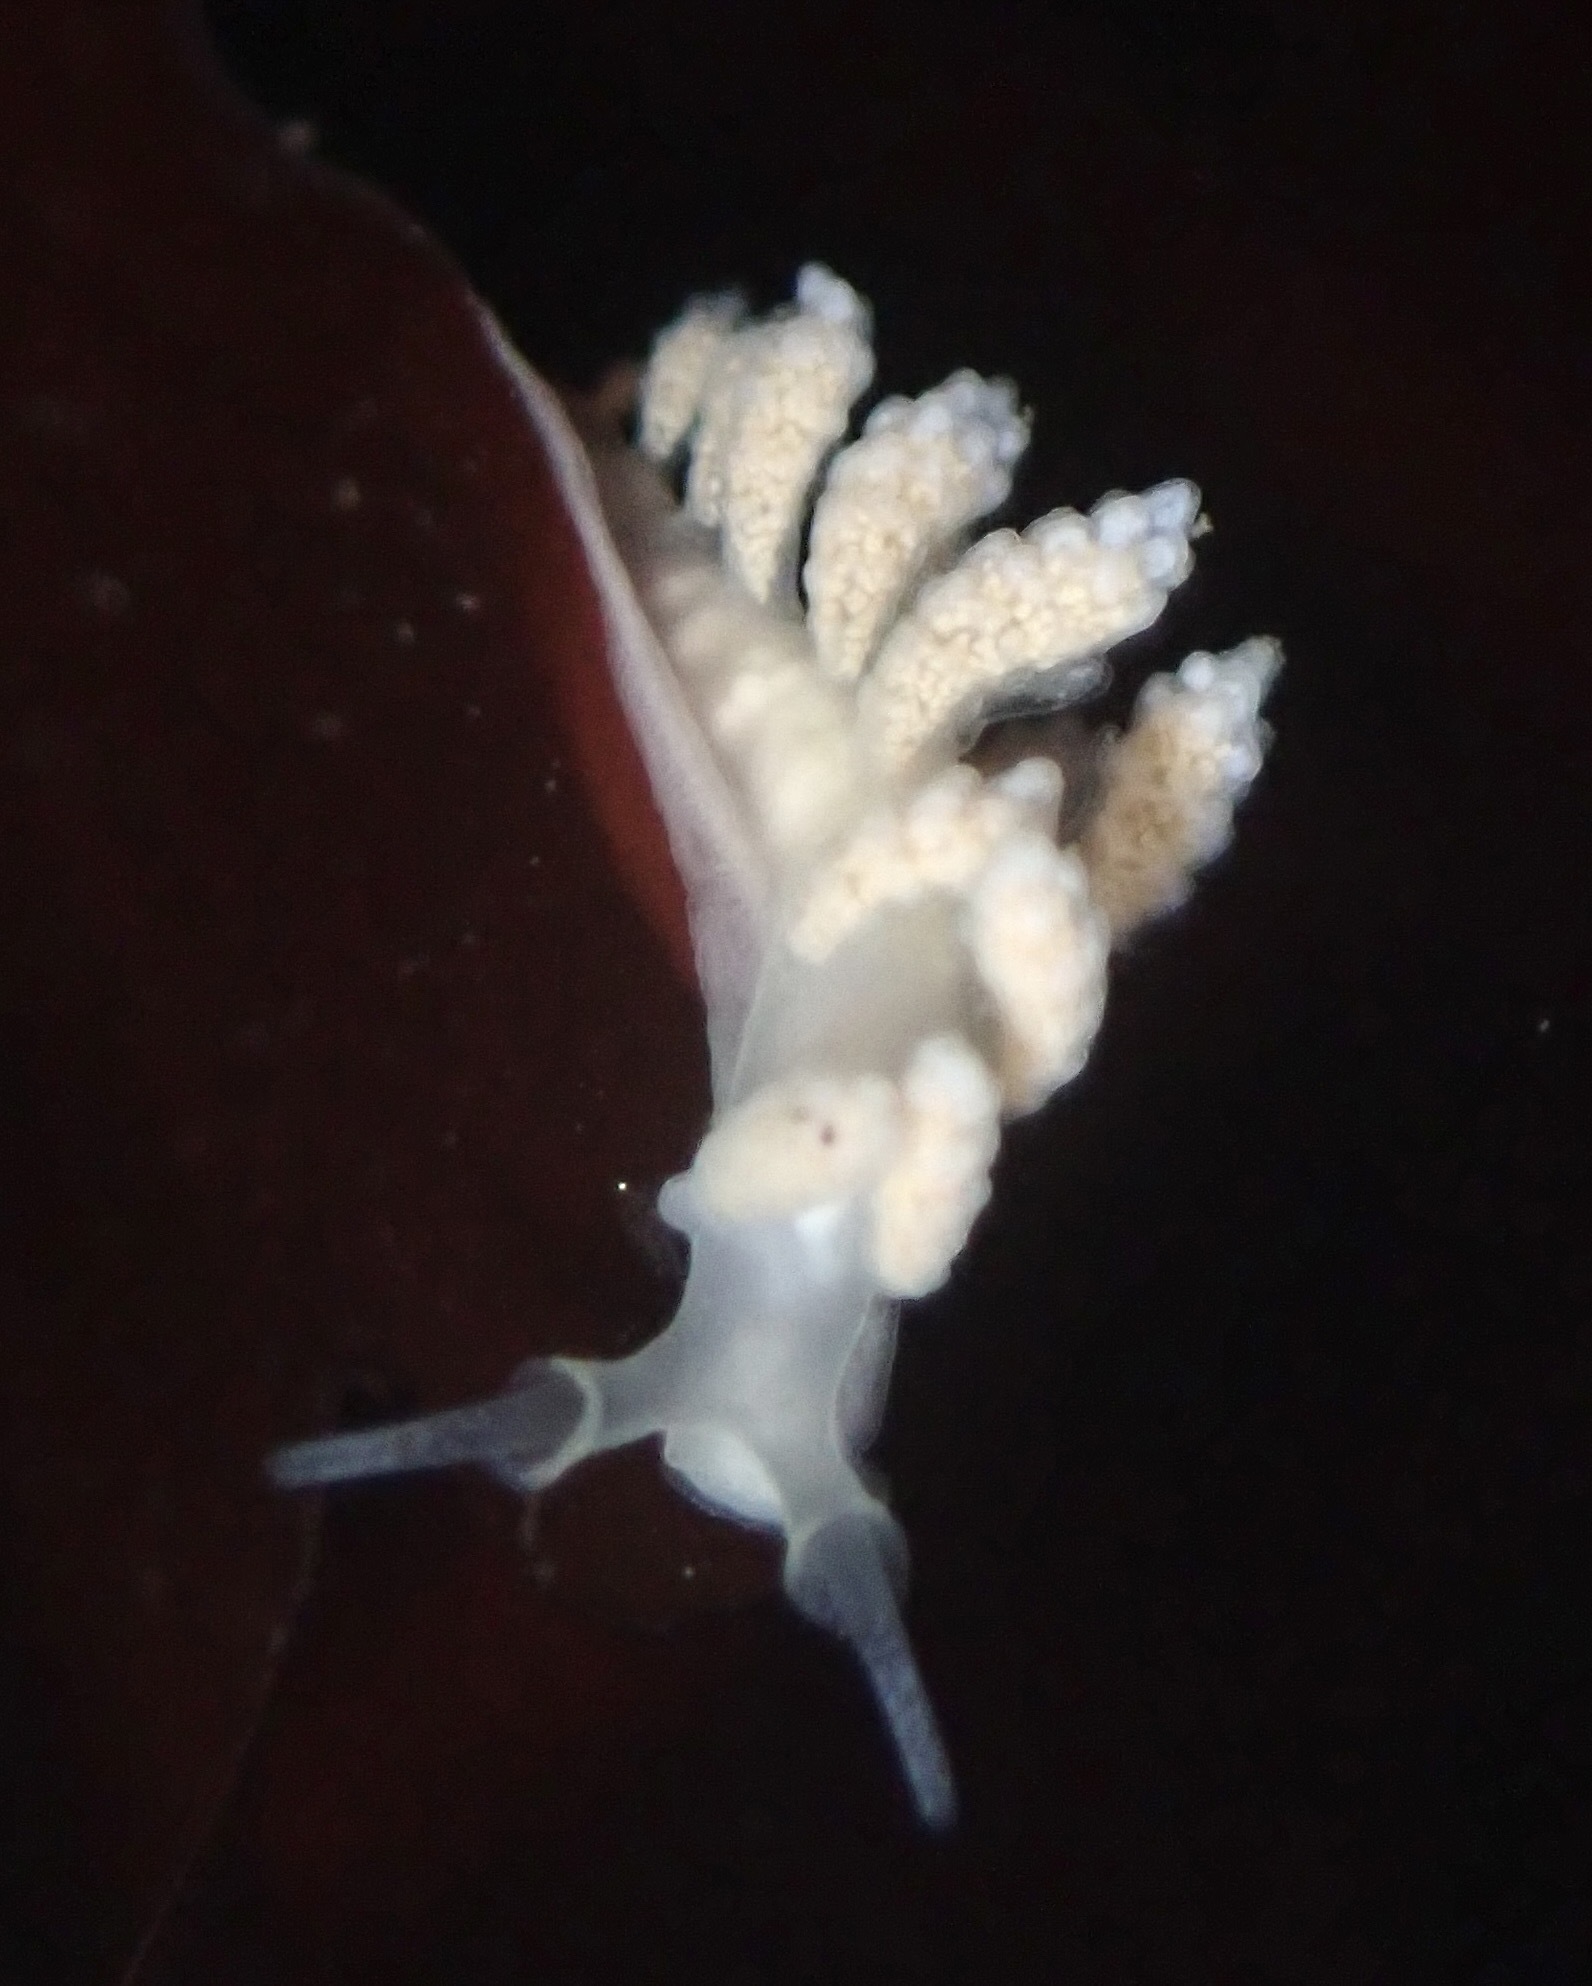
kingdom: Animalia
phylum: Mollusca
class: Gastropoda
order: Nudibranchia
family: Dotidae
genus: Doto
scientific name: Doto amyra
